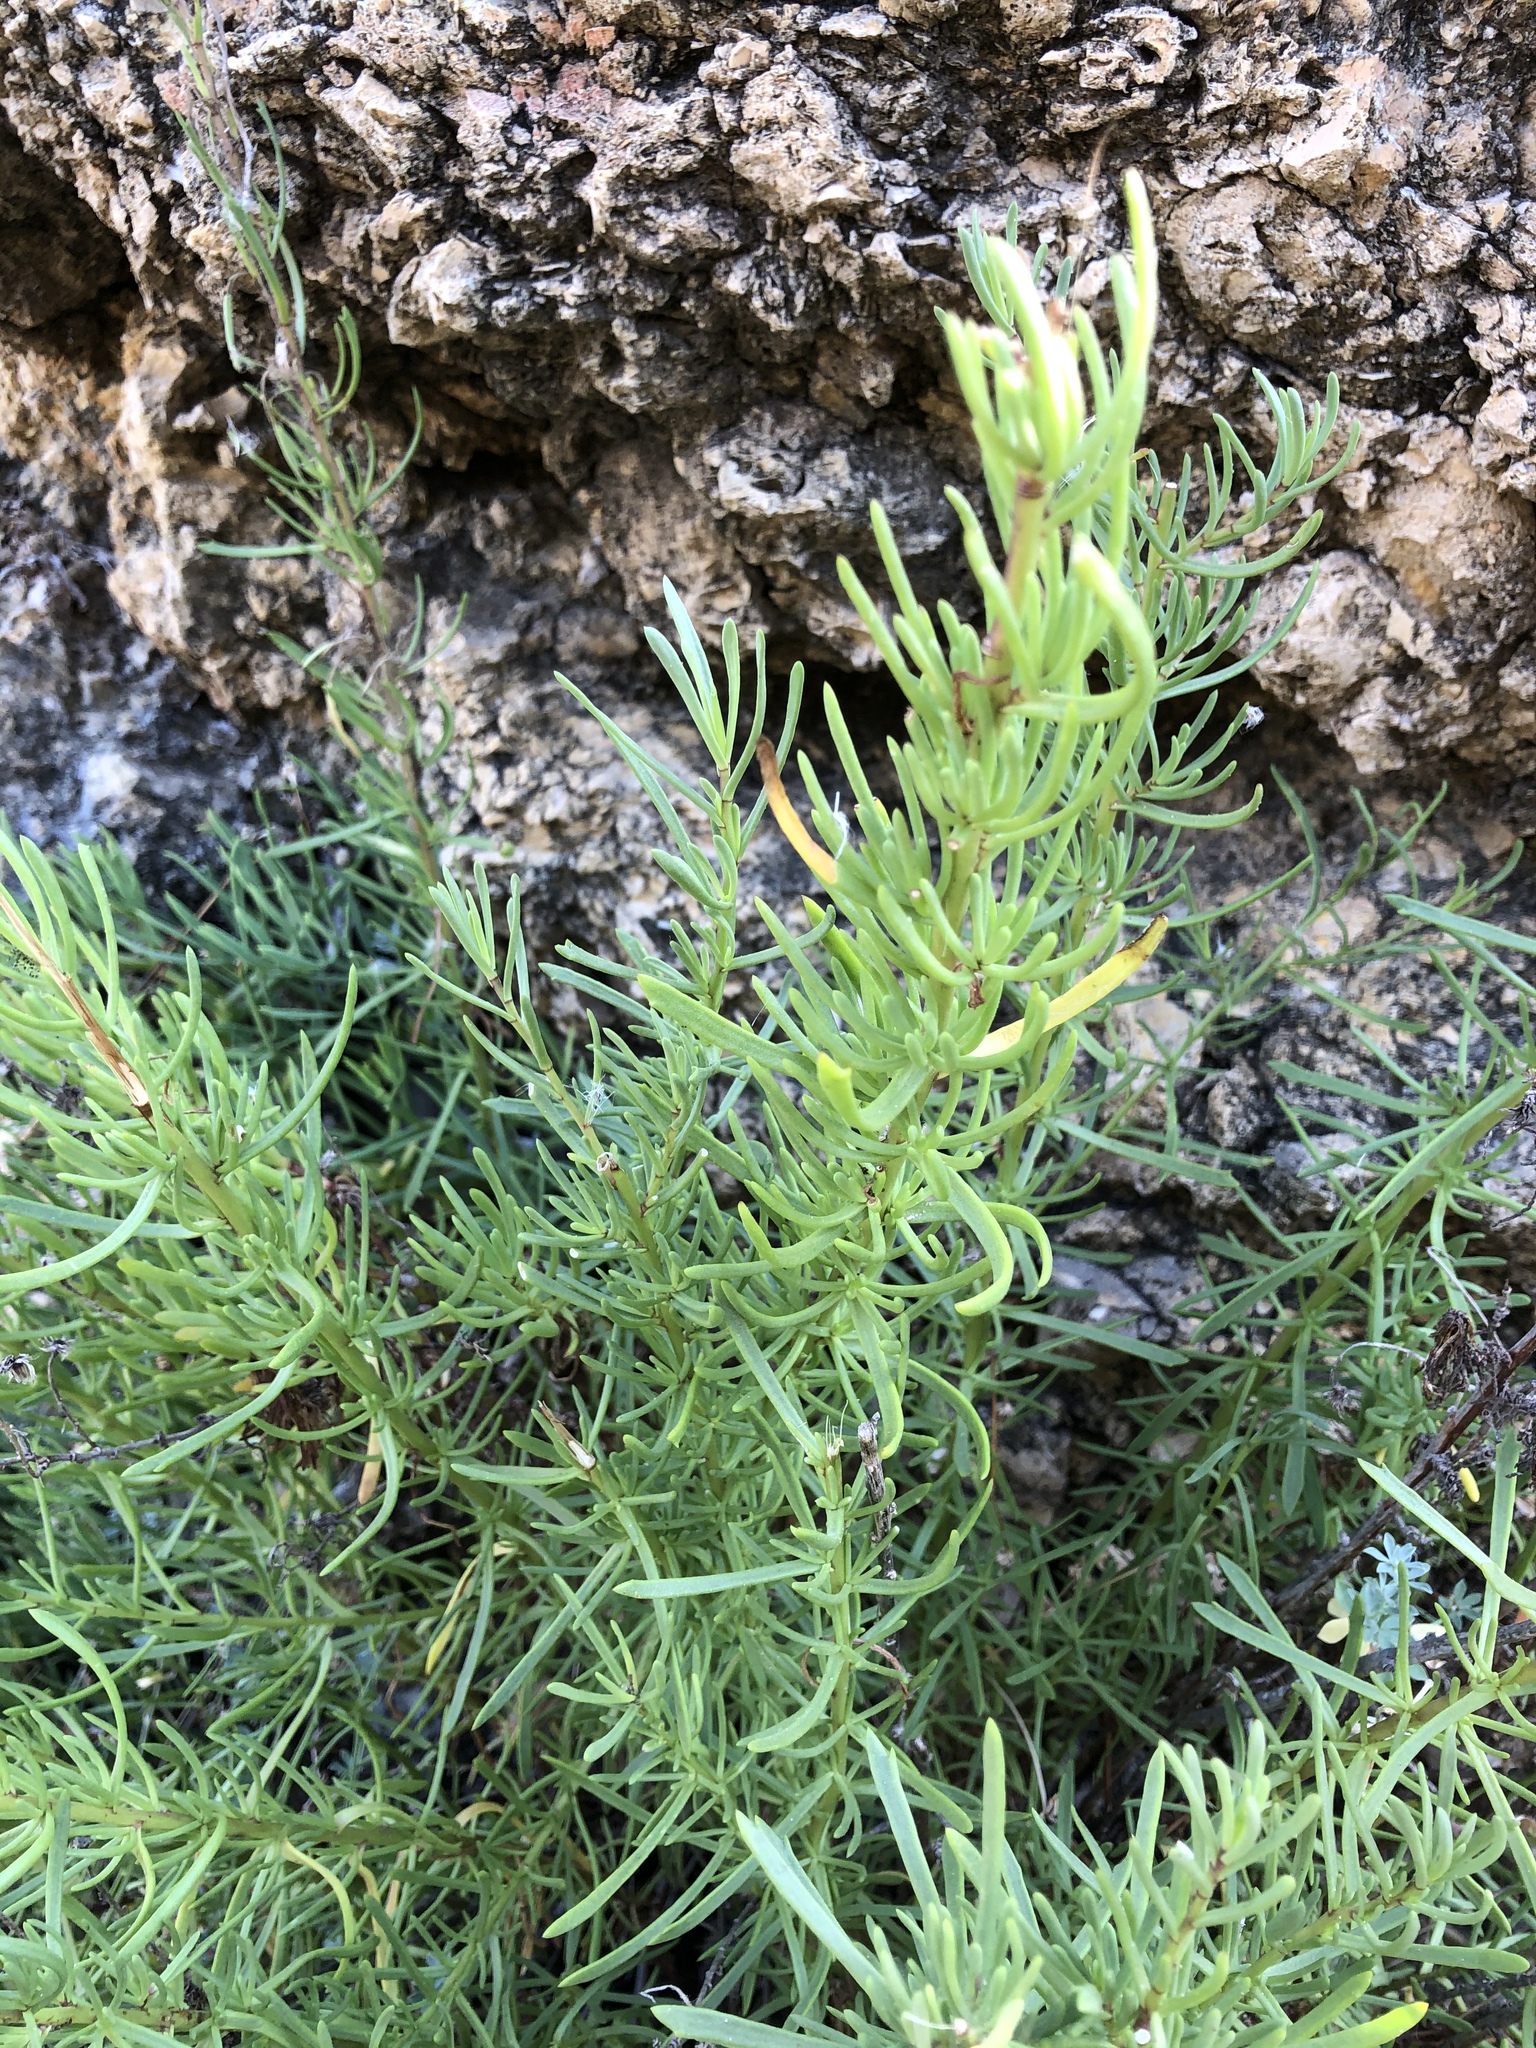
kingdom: Plantae
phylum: Tracheophyta
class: Magnoliopsida
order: Lamiales
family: Lamiaceae
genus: Salvia
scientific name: Salvia rosmarinus
